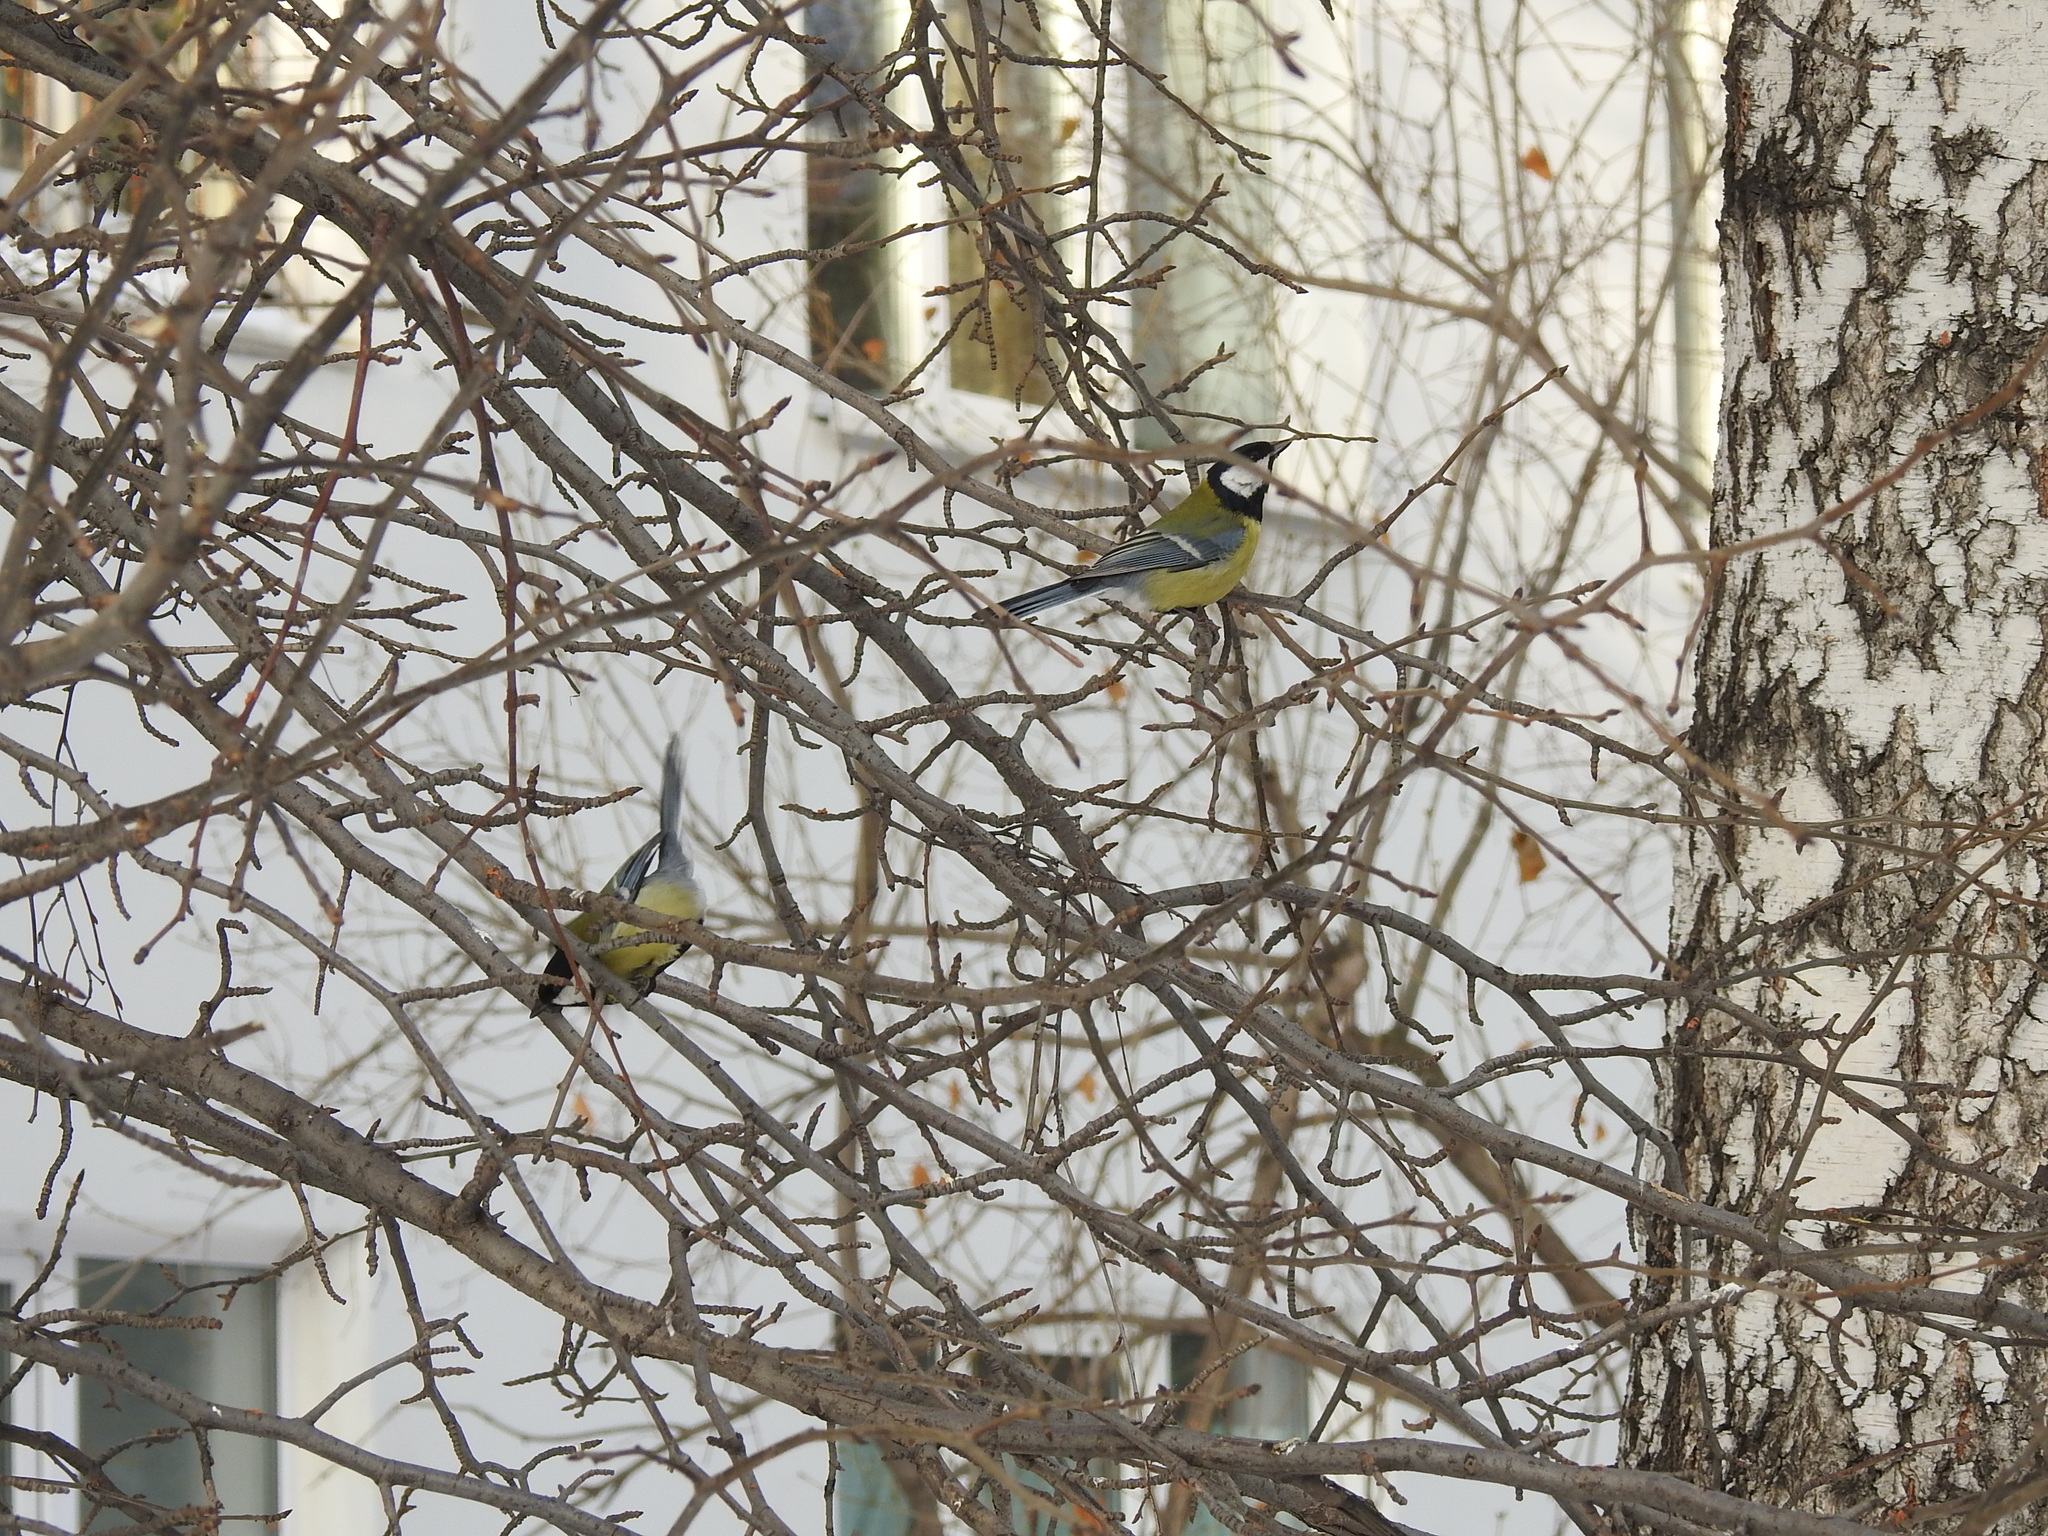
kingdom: Animalia
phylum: Chordata
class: Aves
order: Passeriformes
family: Paridae
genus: Parus
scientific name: Parus major
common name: Great tit
